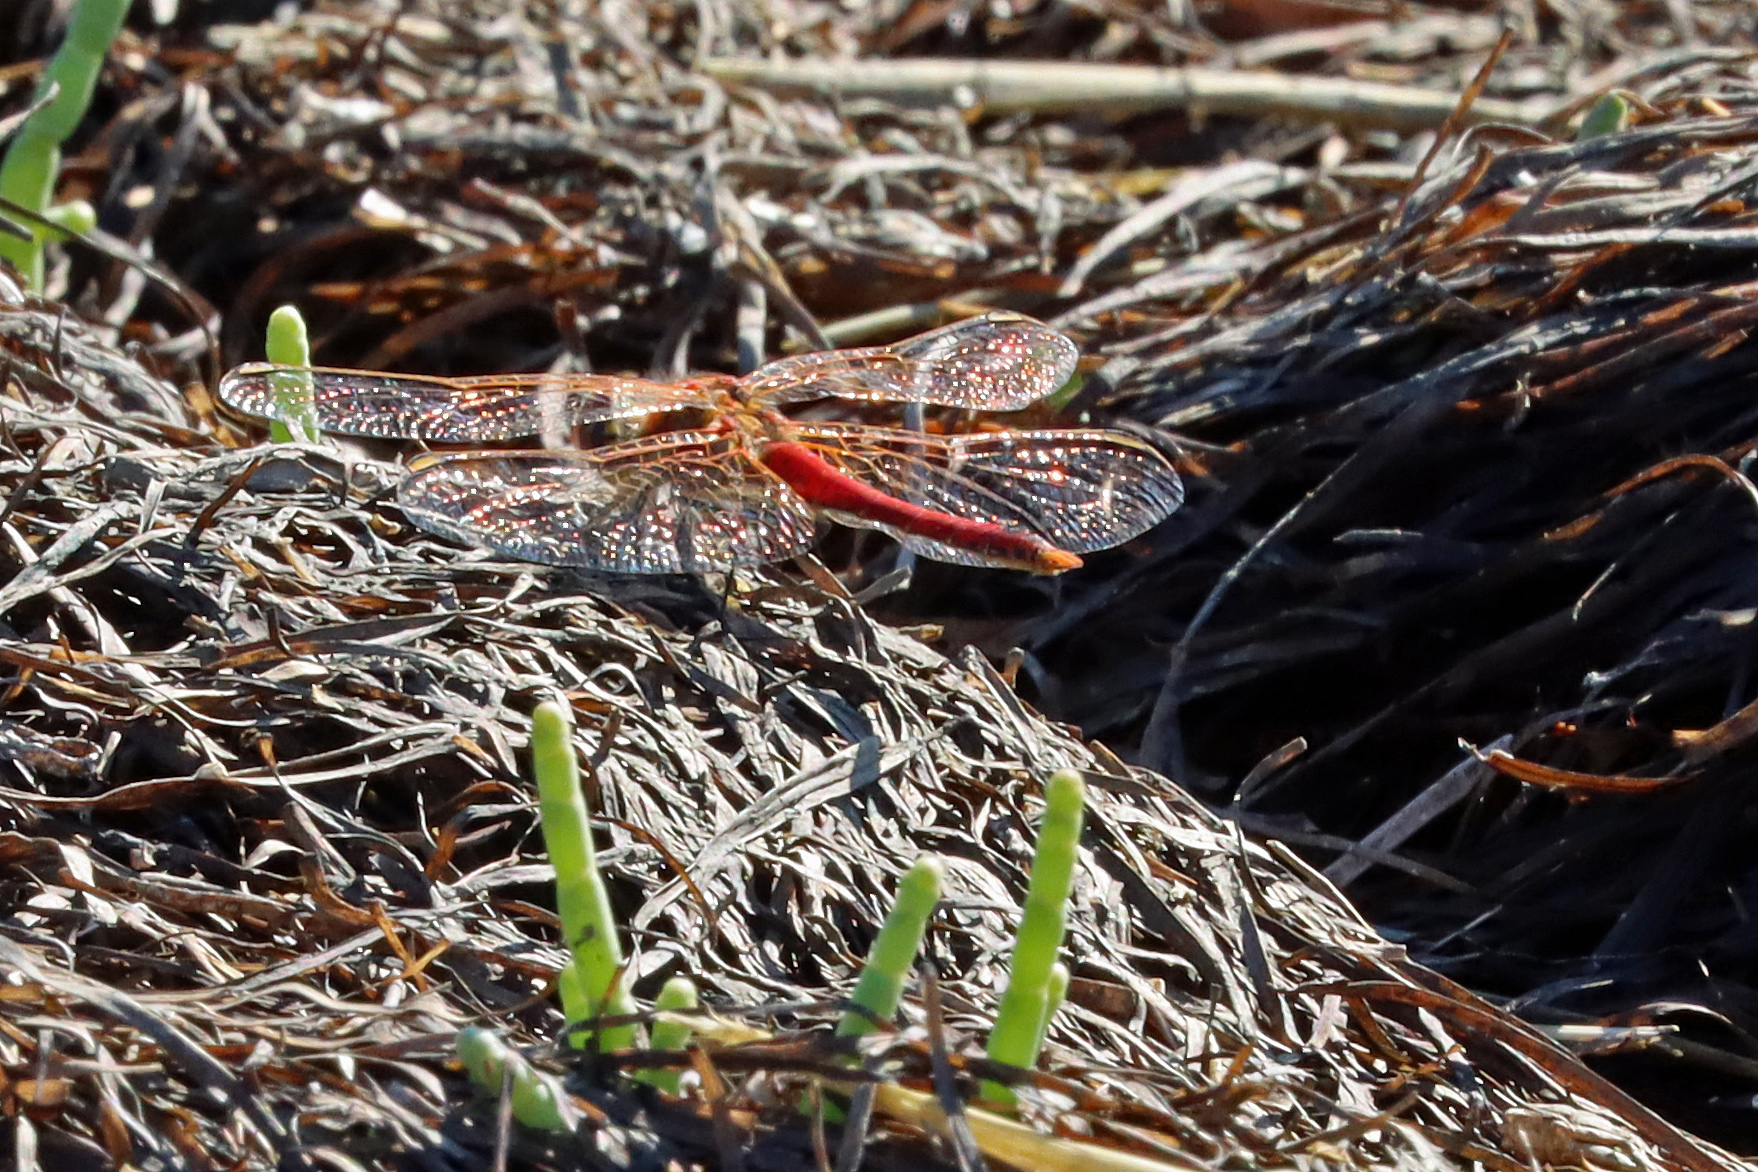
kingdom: Animalia
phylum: Arthropoda
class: Insecta
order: Odonata
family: Libellulidae
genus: Sympetrum
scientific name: Sympetrum fonscolombii
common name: Red-veined darter
